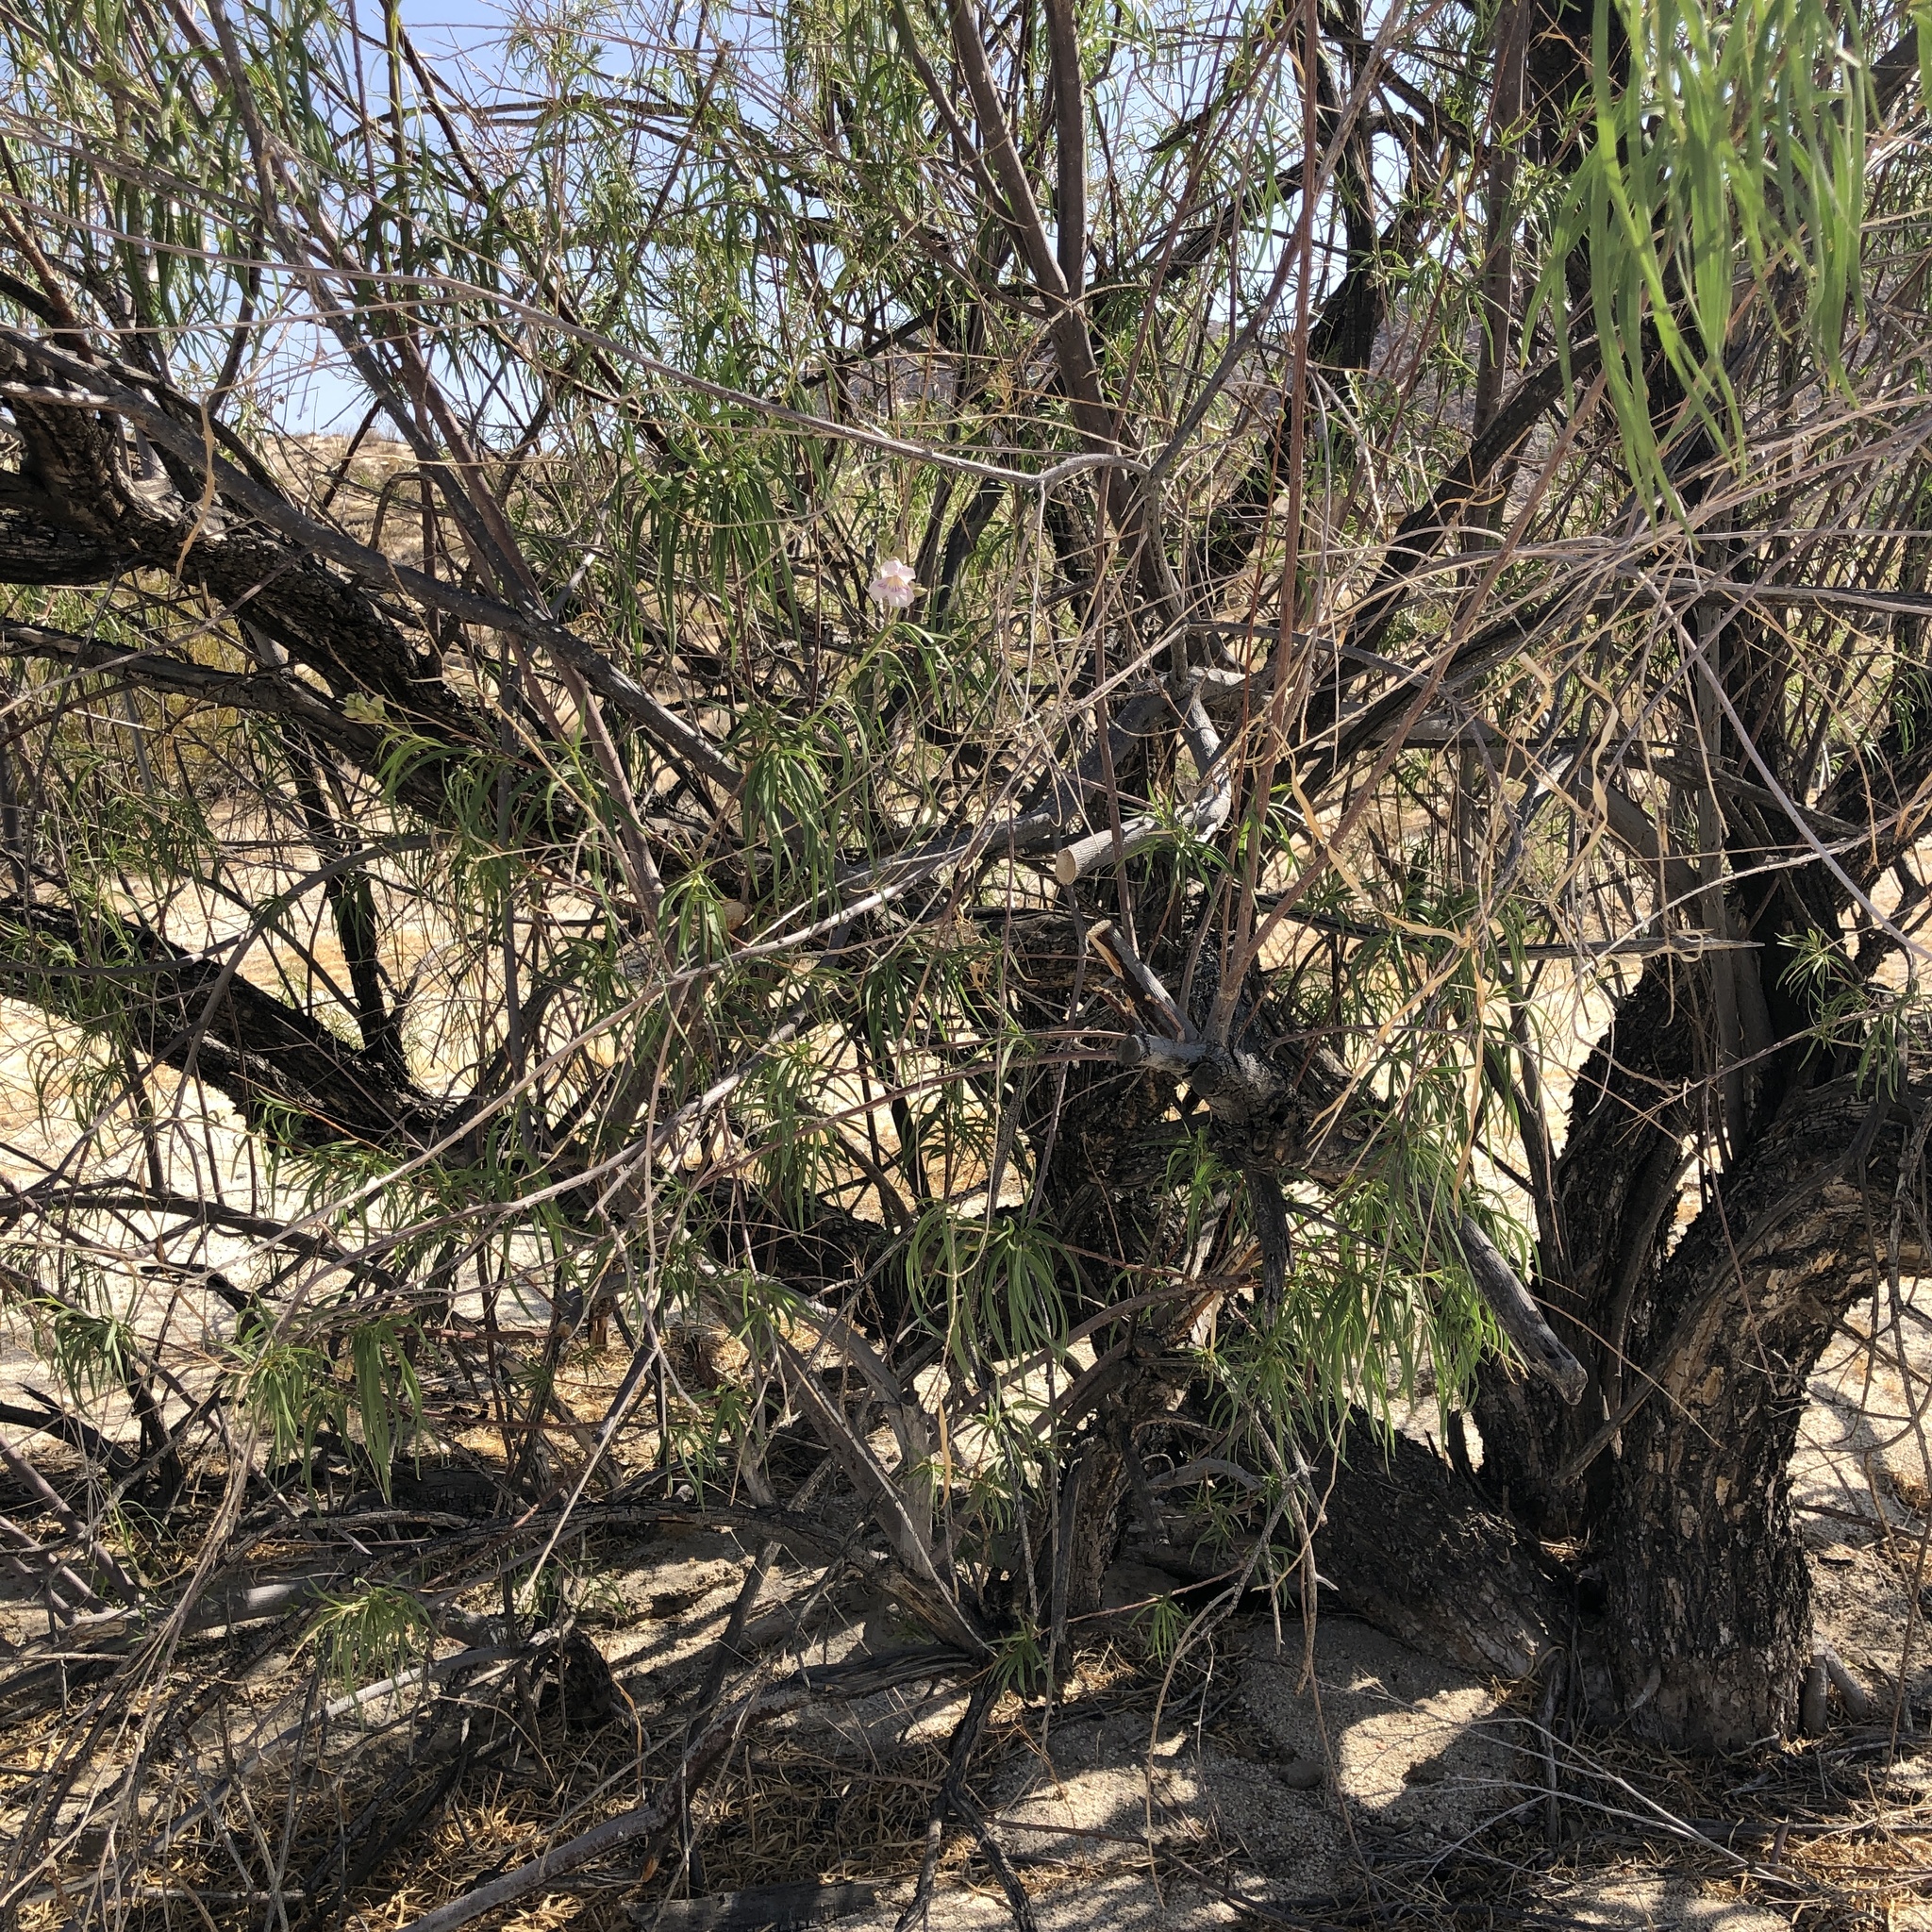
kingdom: Plantae
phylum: Tracheophyta
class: Magnoliopsida
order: Lamiales
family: Bignoniaceae
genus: Chilopsis
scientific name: Chilopsis linearis
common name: Desert-willow
